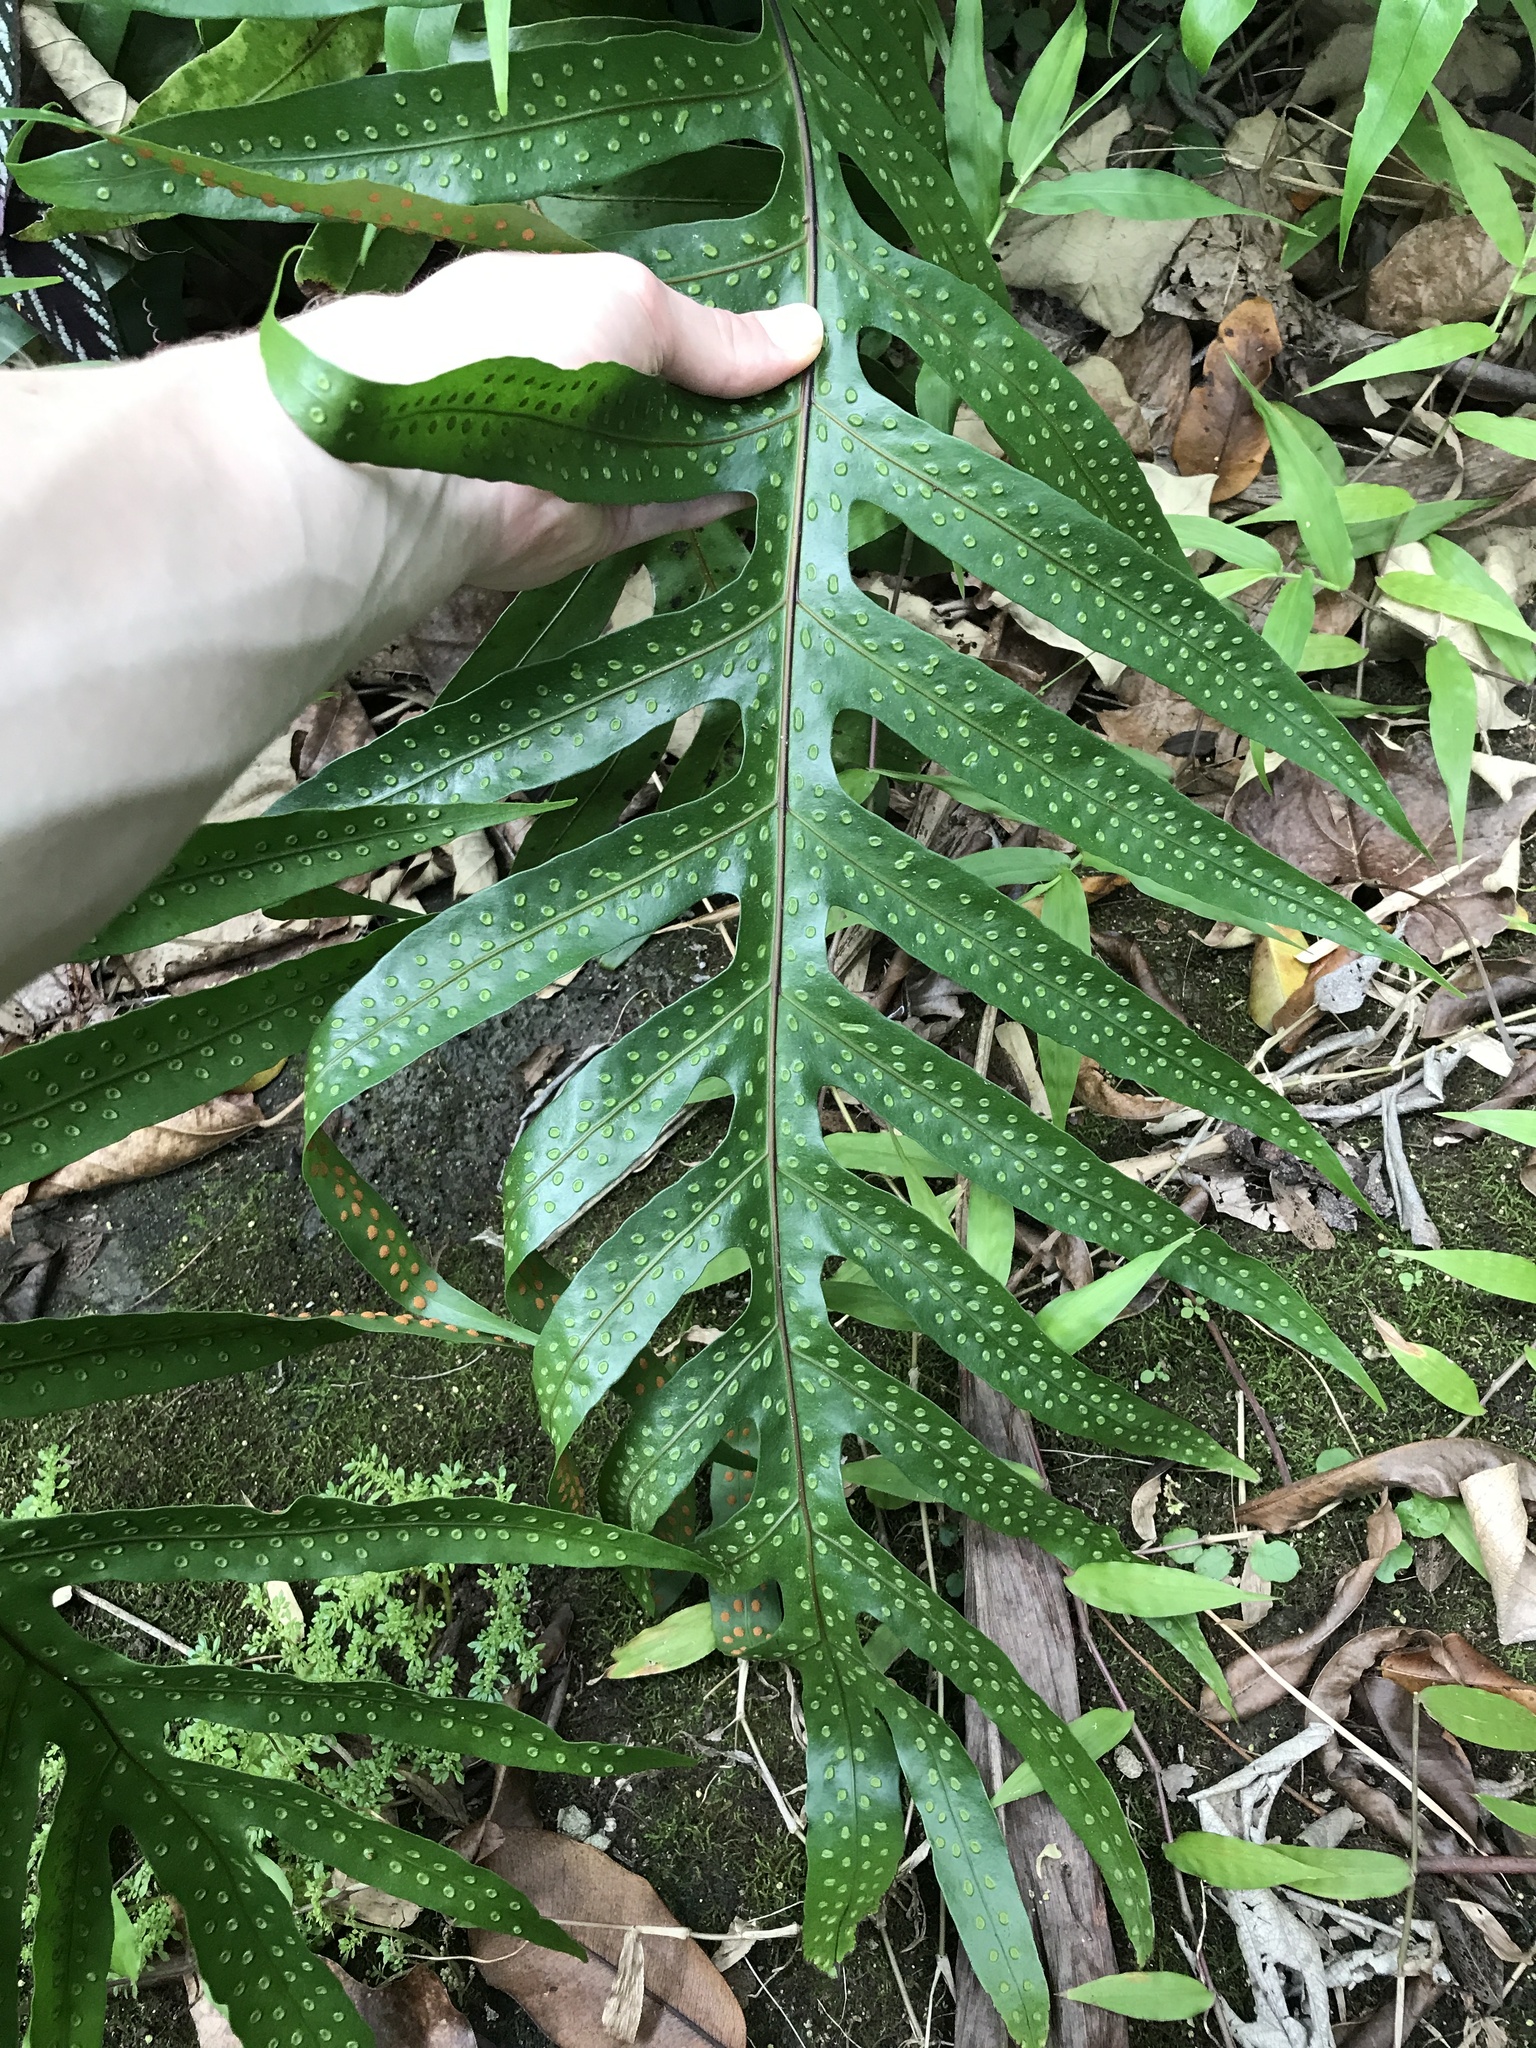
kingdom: Plantae
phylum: Tracheophyta
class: Polypodiopsida
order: Polypodiales
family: Polypodiaceae
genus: Microsorum
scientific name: Microsorum grossum
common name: Musk fern
